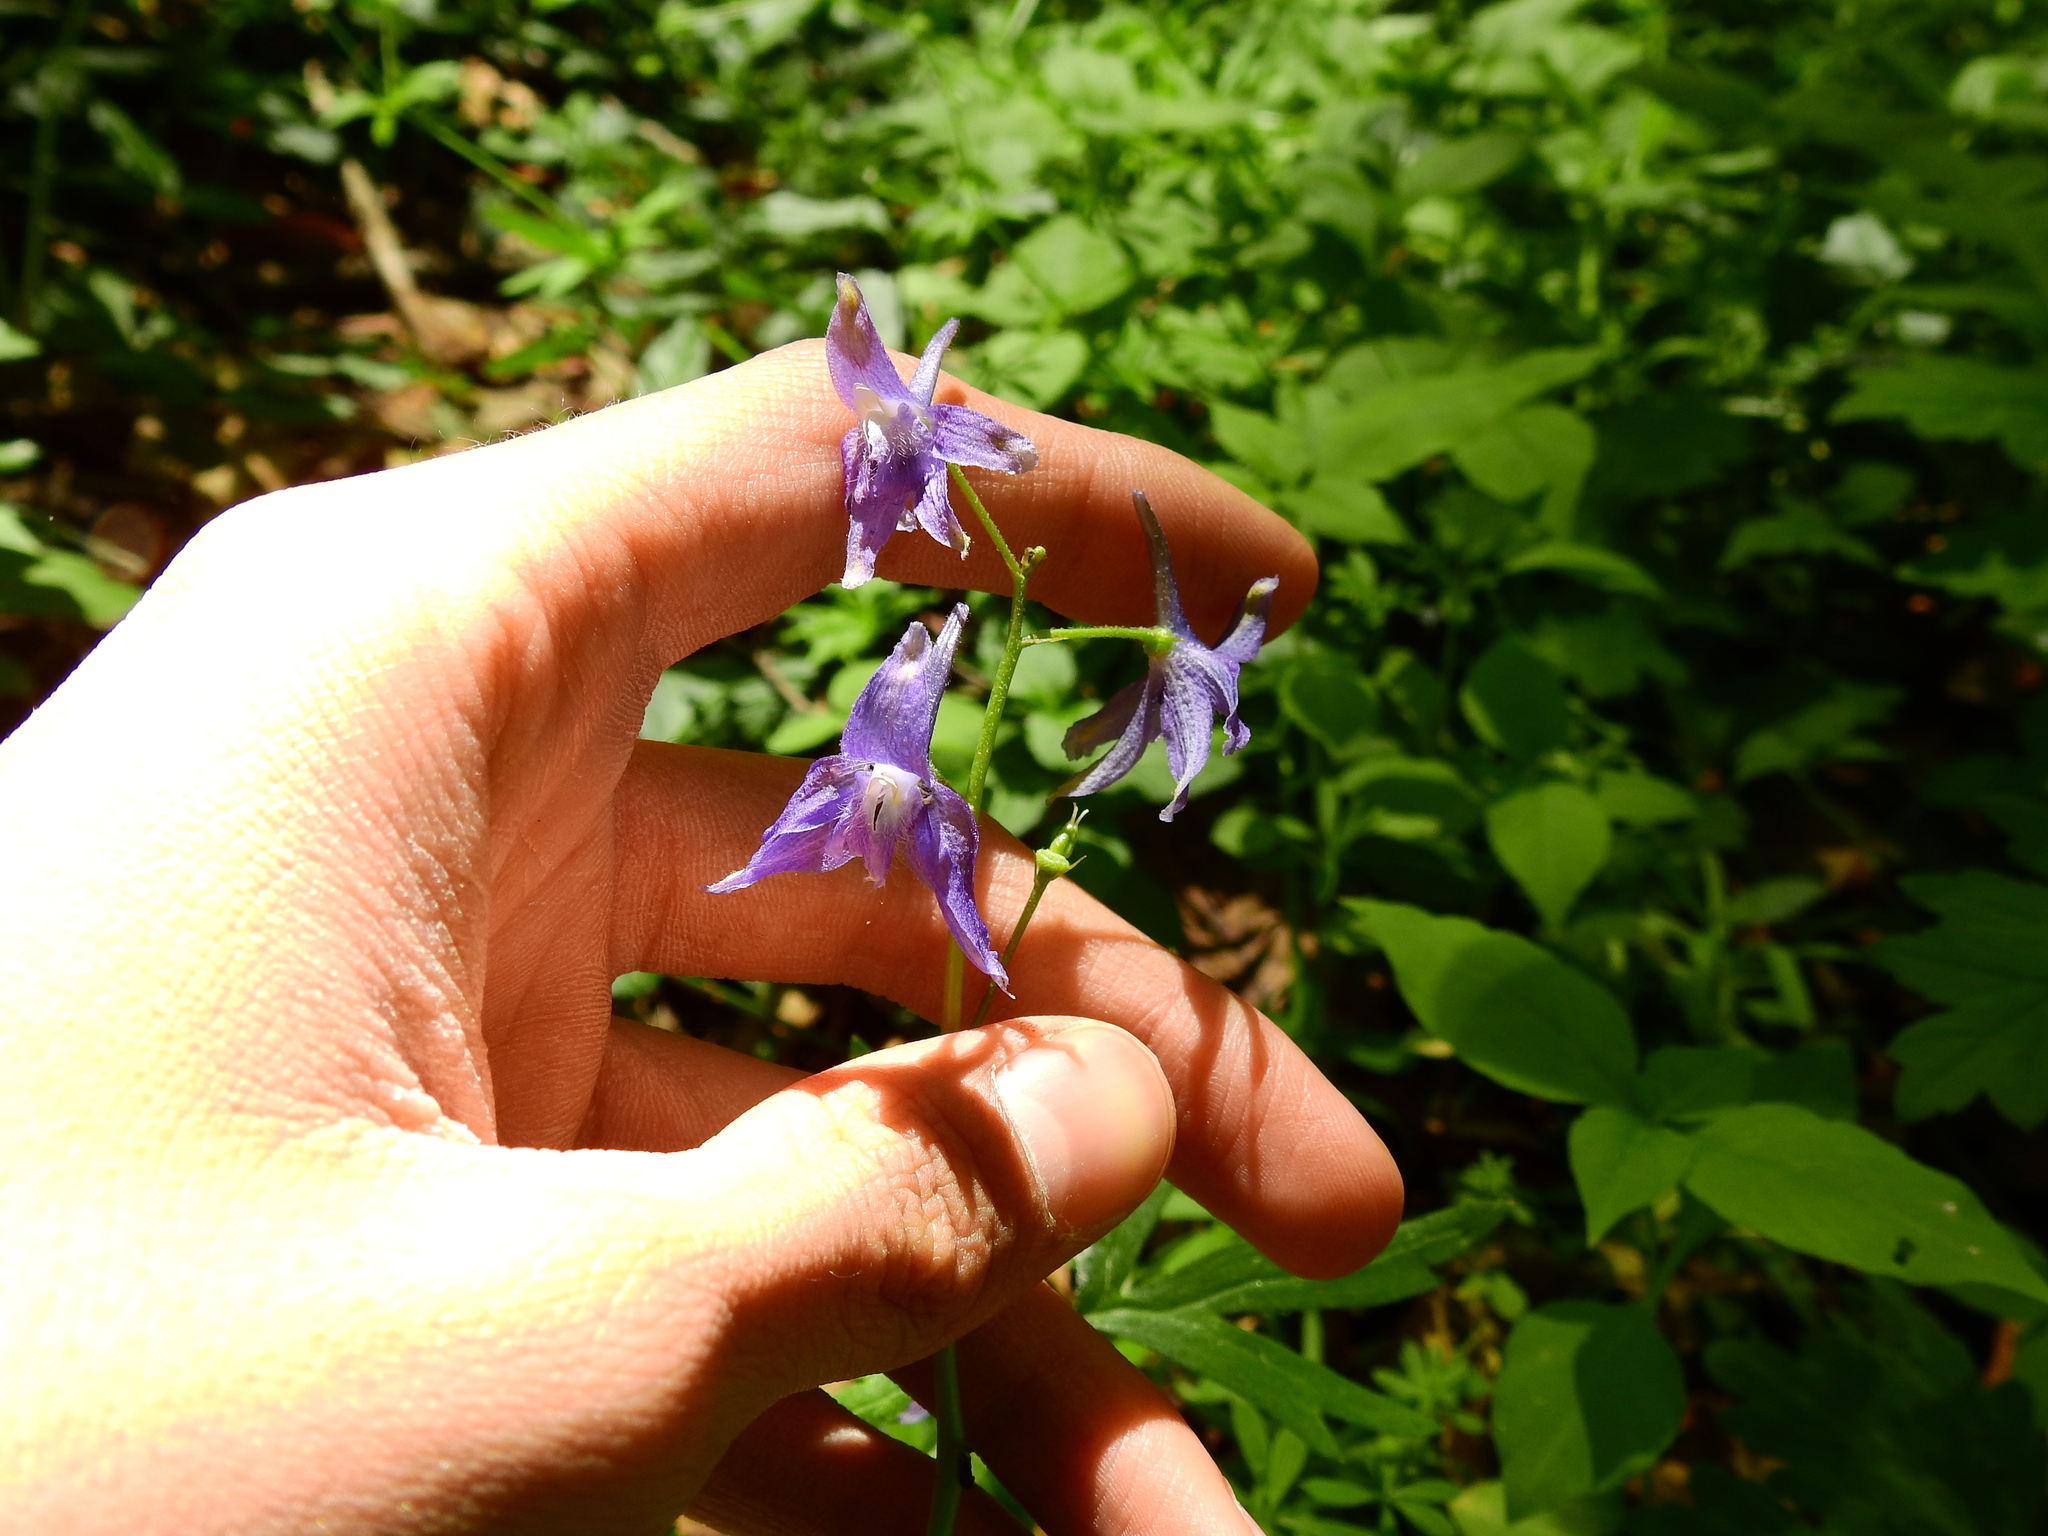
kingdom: Plantae
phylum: Tracheophyta
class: Magnoliopsida
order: Ranunculales
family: Ranunculaceae
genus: Delphinium
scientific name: Delphinium tricorne
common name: Dwarf larkspur
